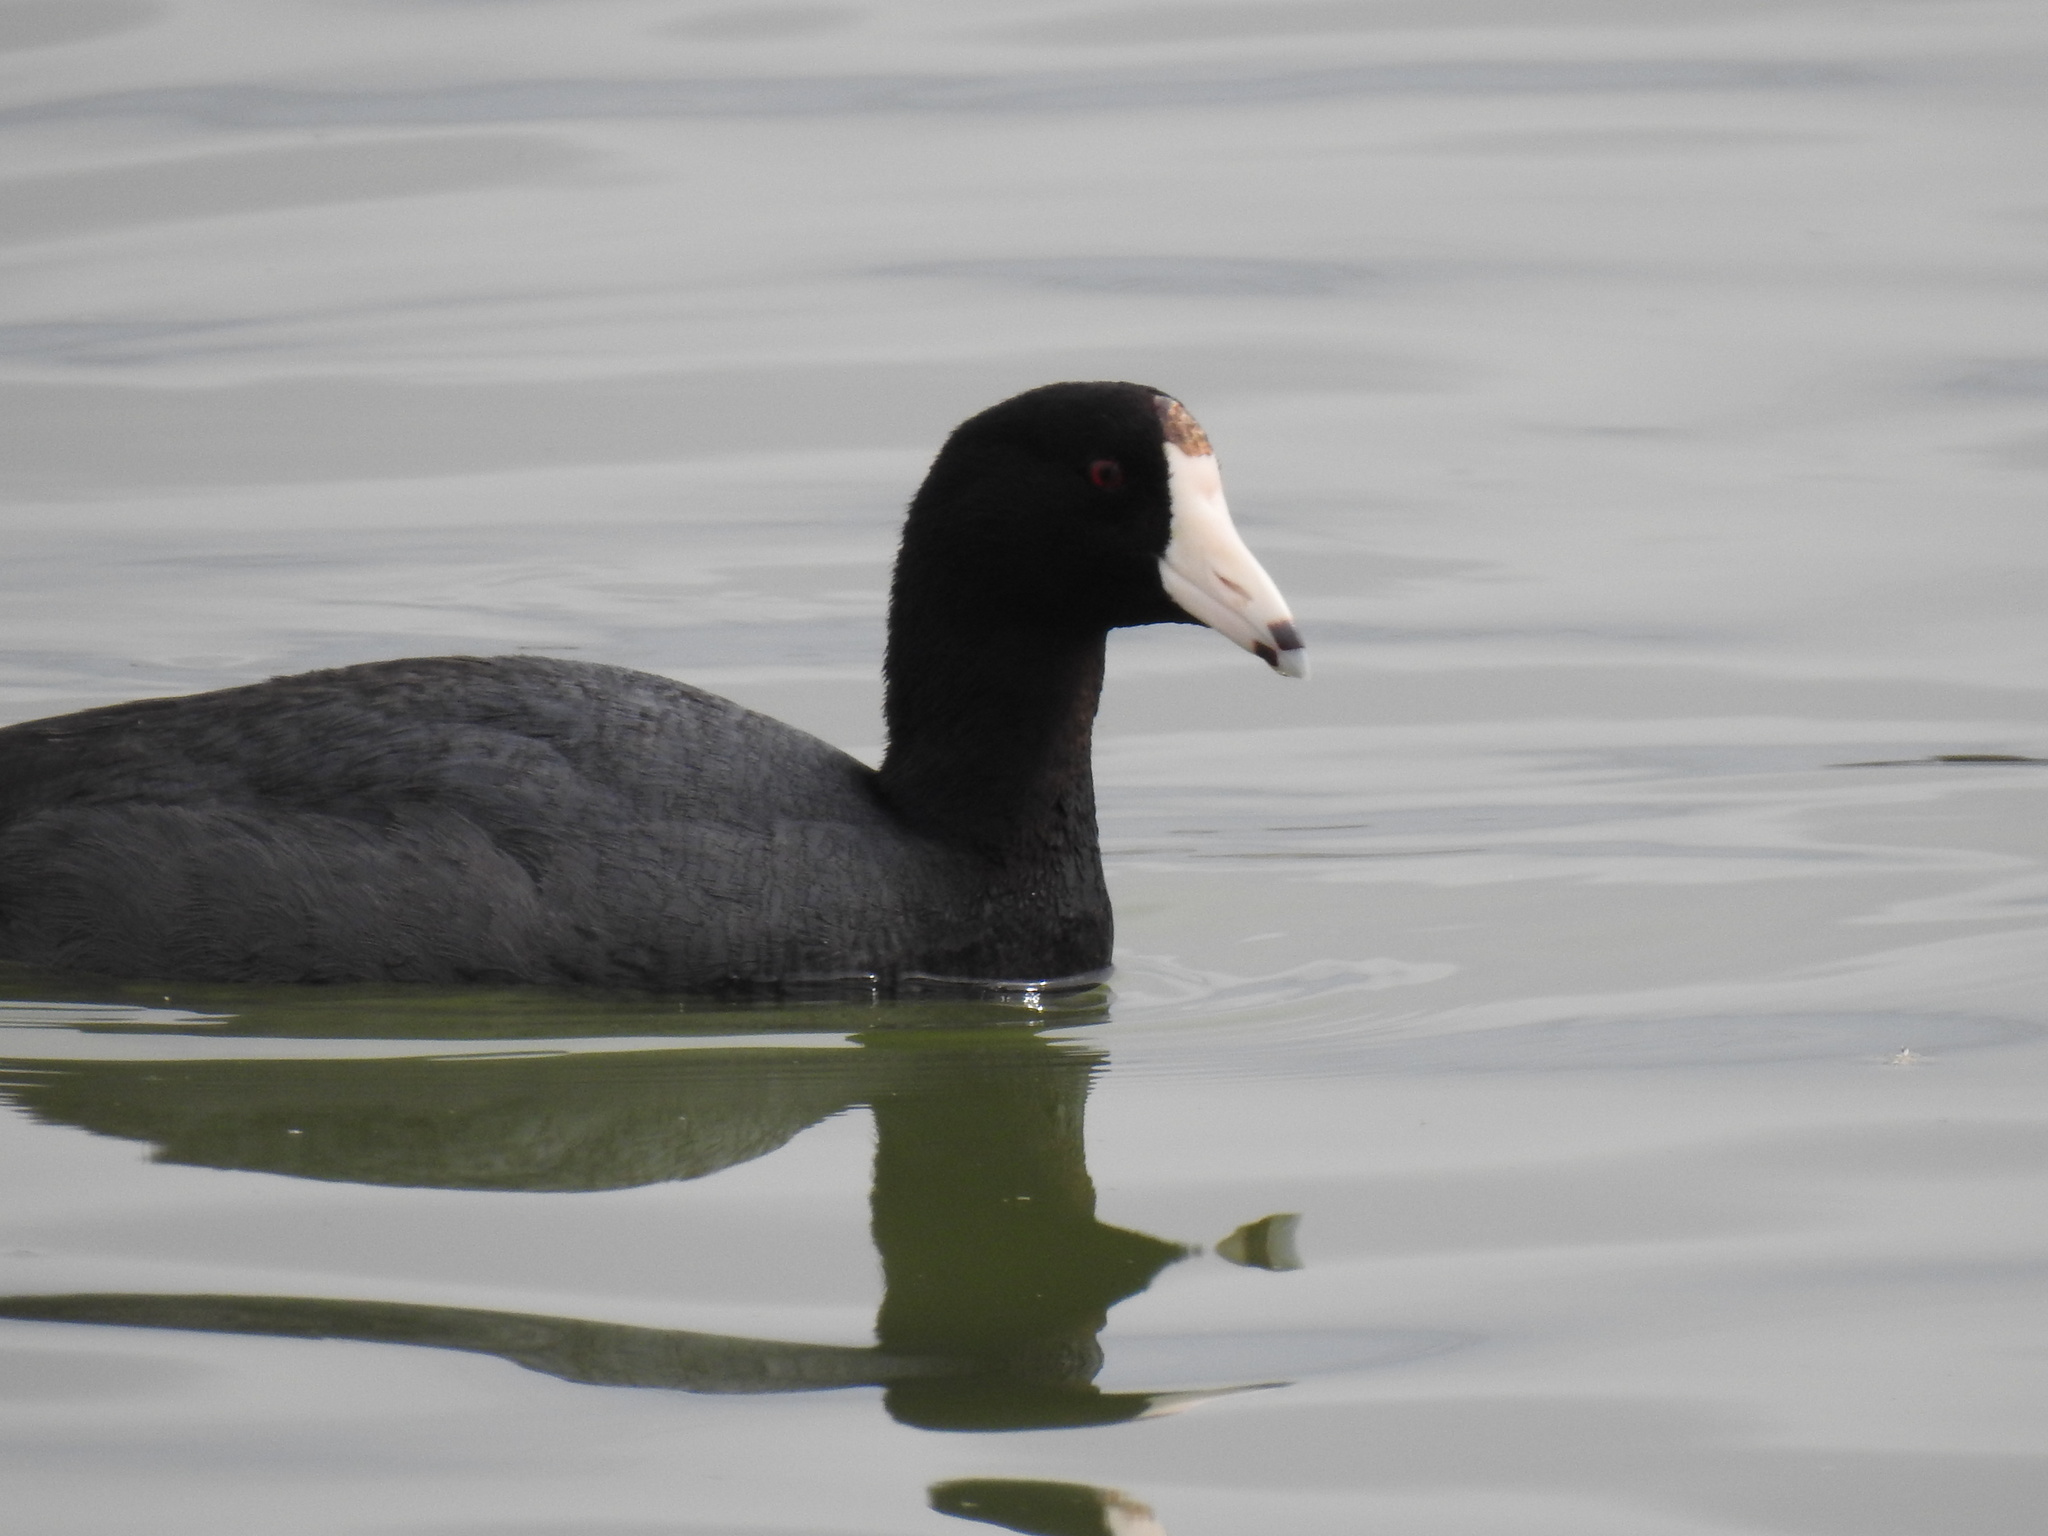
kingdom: Animalia
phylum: Chordata
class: Aves
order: Gruiformes
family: Rallidae
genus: Fulica
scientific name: Fulica americana
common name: American coot
